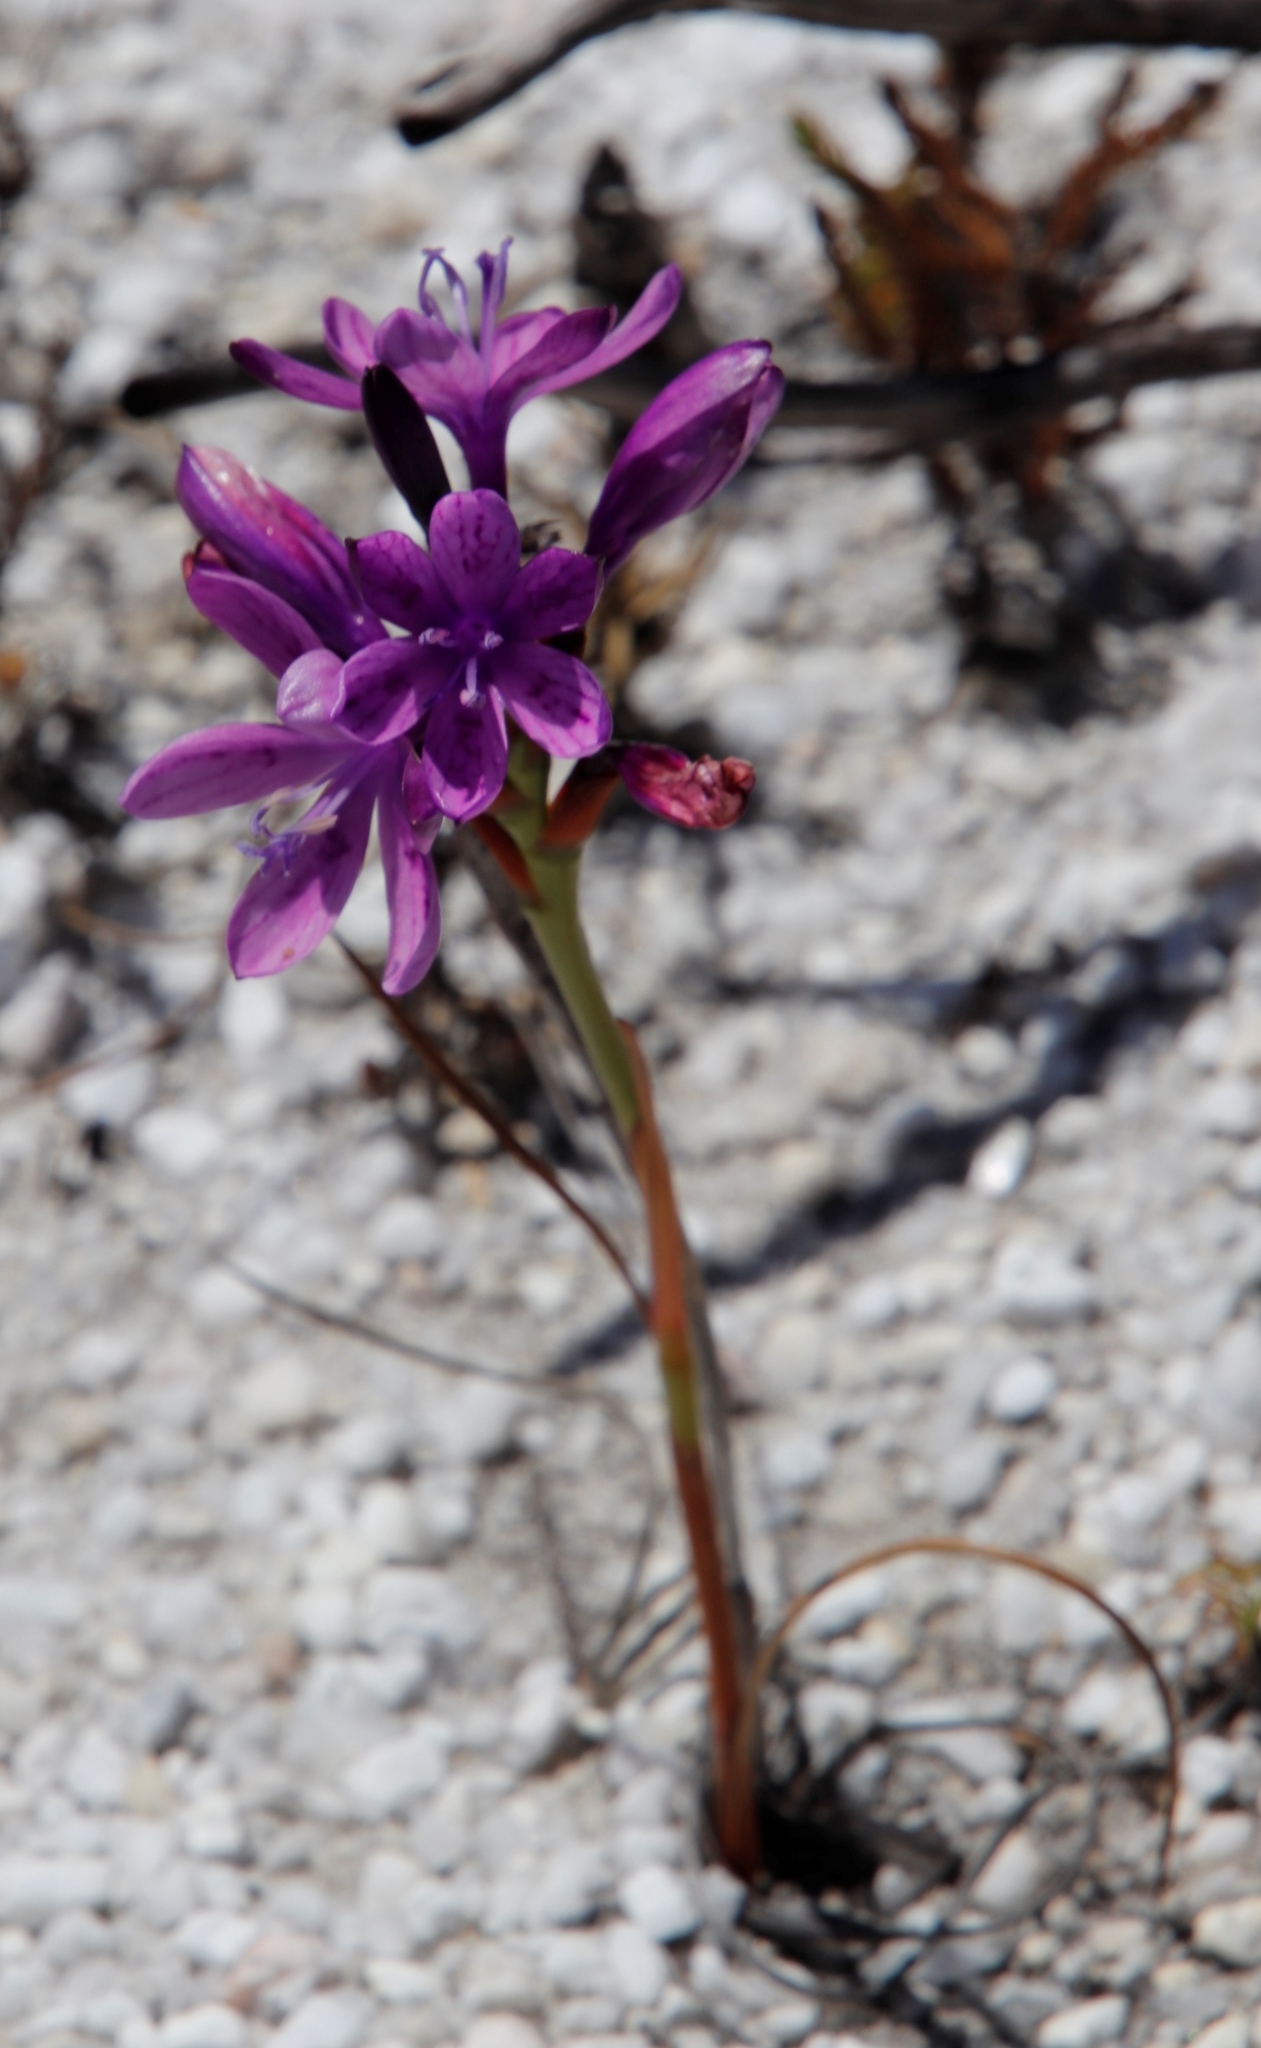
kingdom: Plantae
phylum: Tracheophyta
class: Liliopsida
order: Asparagales
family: Iridaceae
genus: Thereianthus
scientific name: Thereianthus bracteolatus
